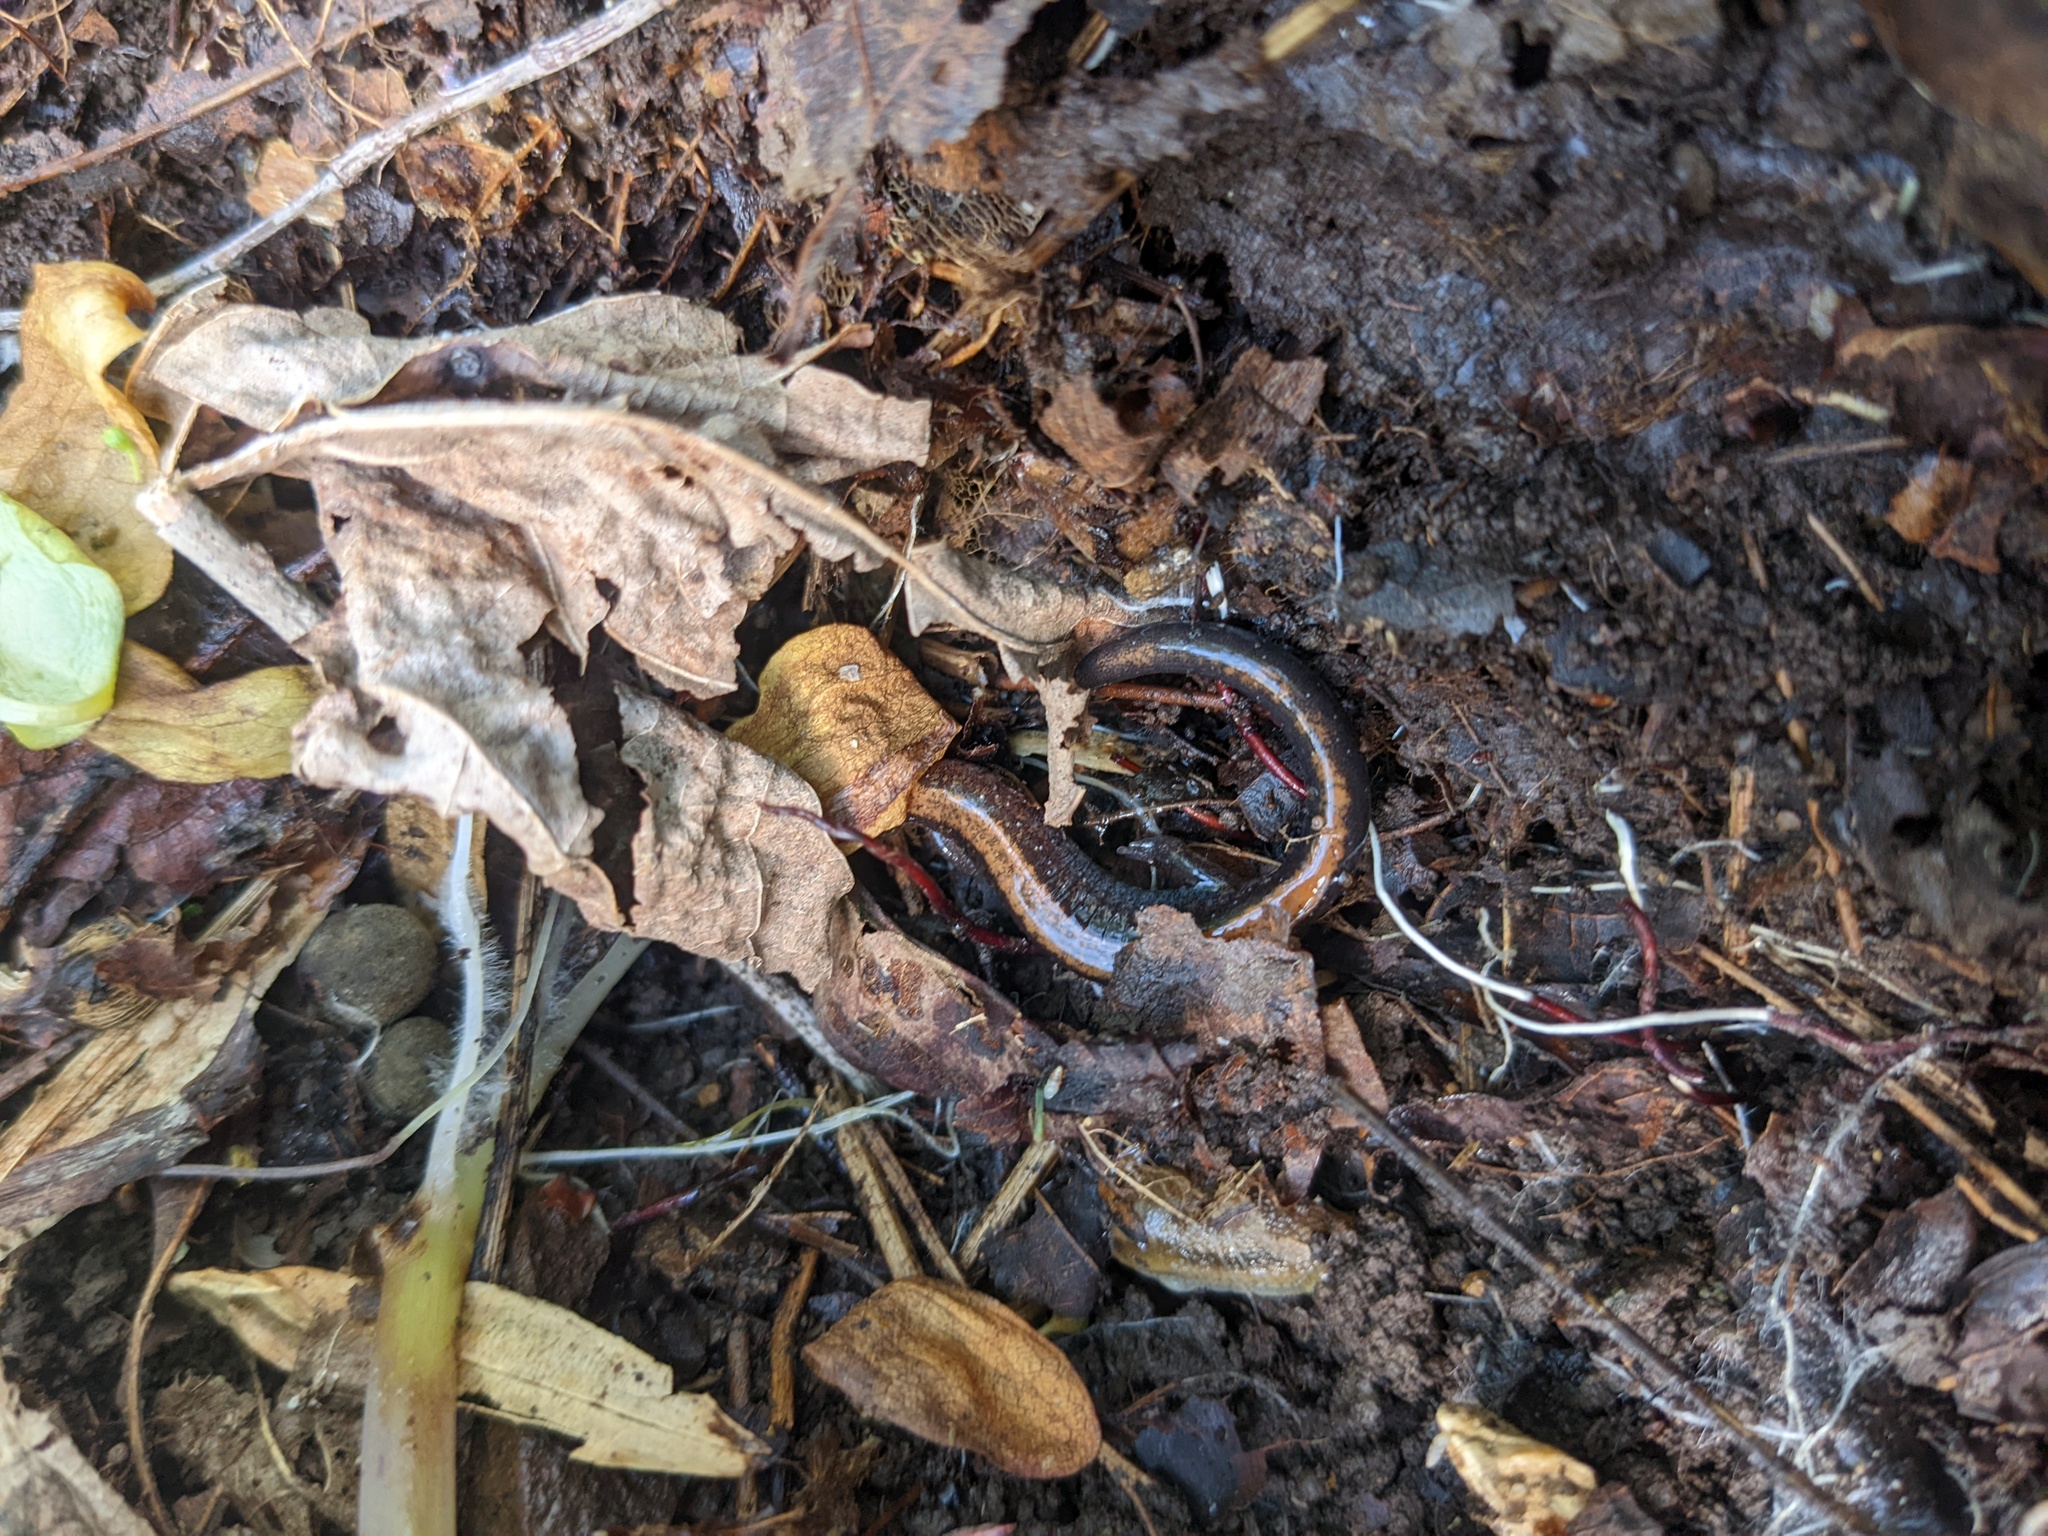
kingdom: Animalia
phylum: Chordata
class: Amphibia
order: Caudata
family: Plethodontidae
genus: Plethodon
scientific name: Plethodon cinereus
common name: Redback salamander
